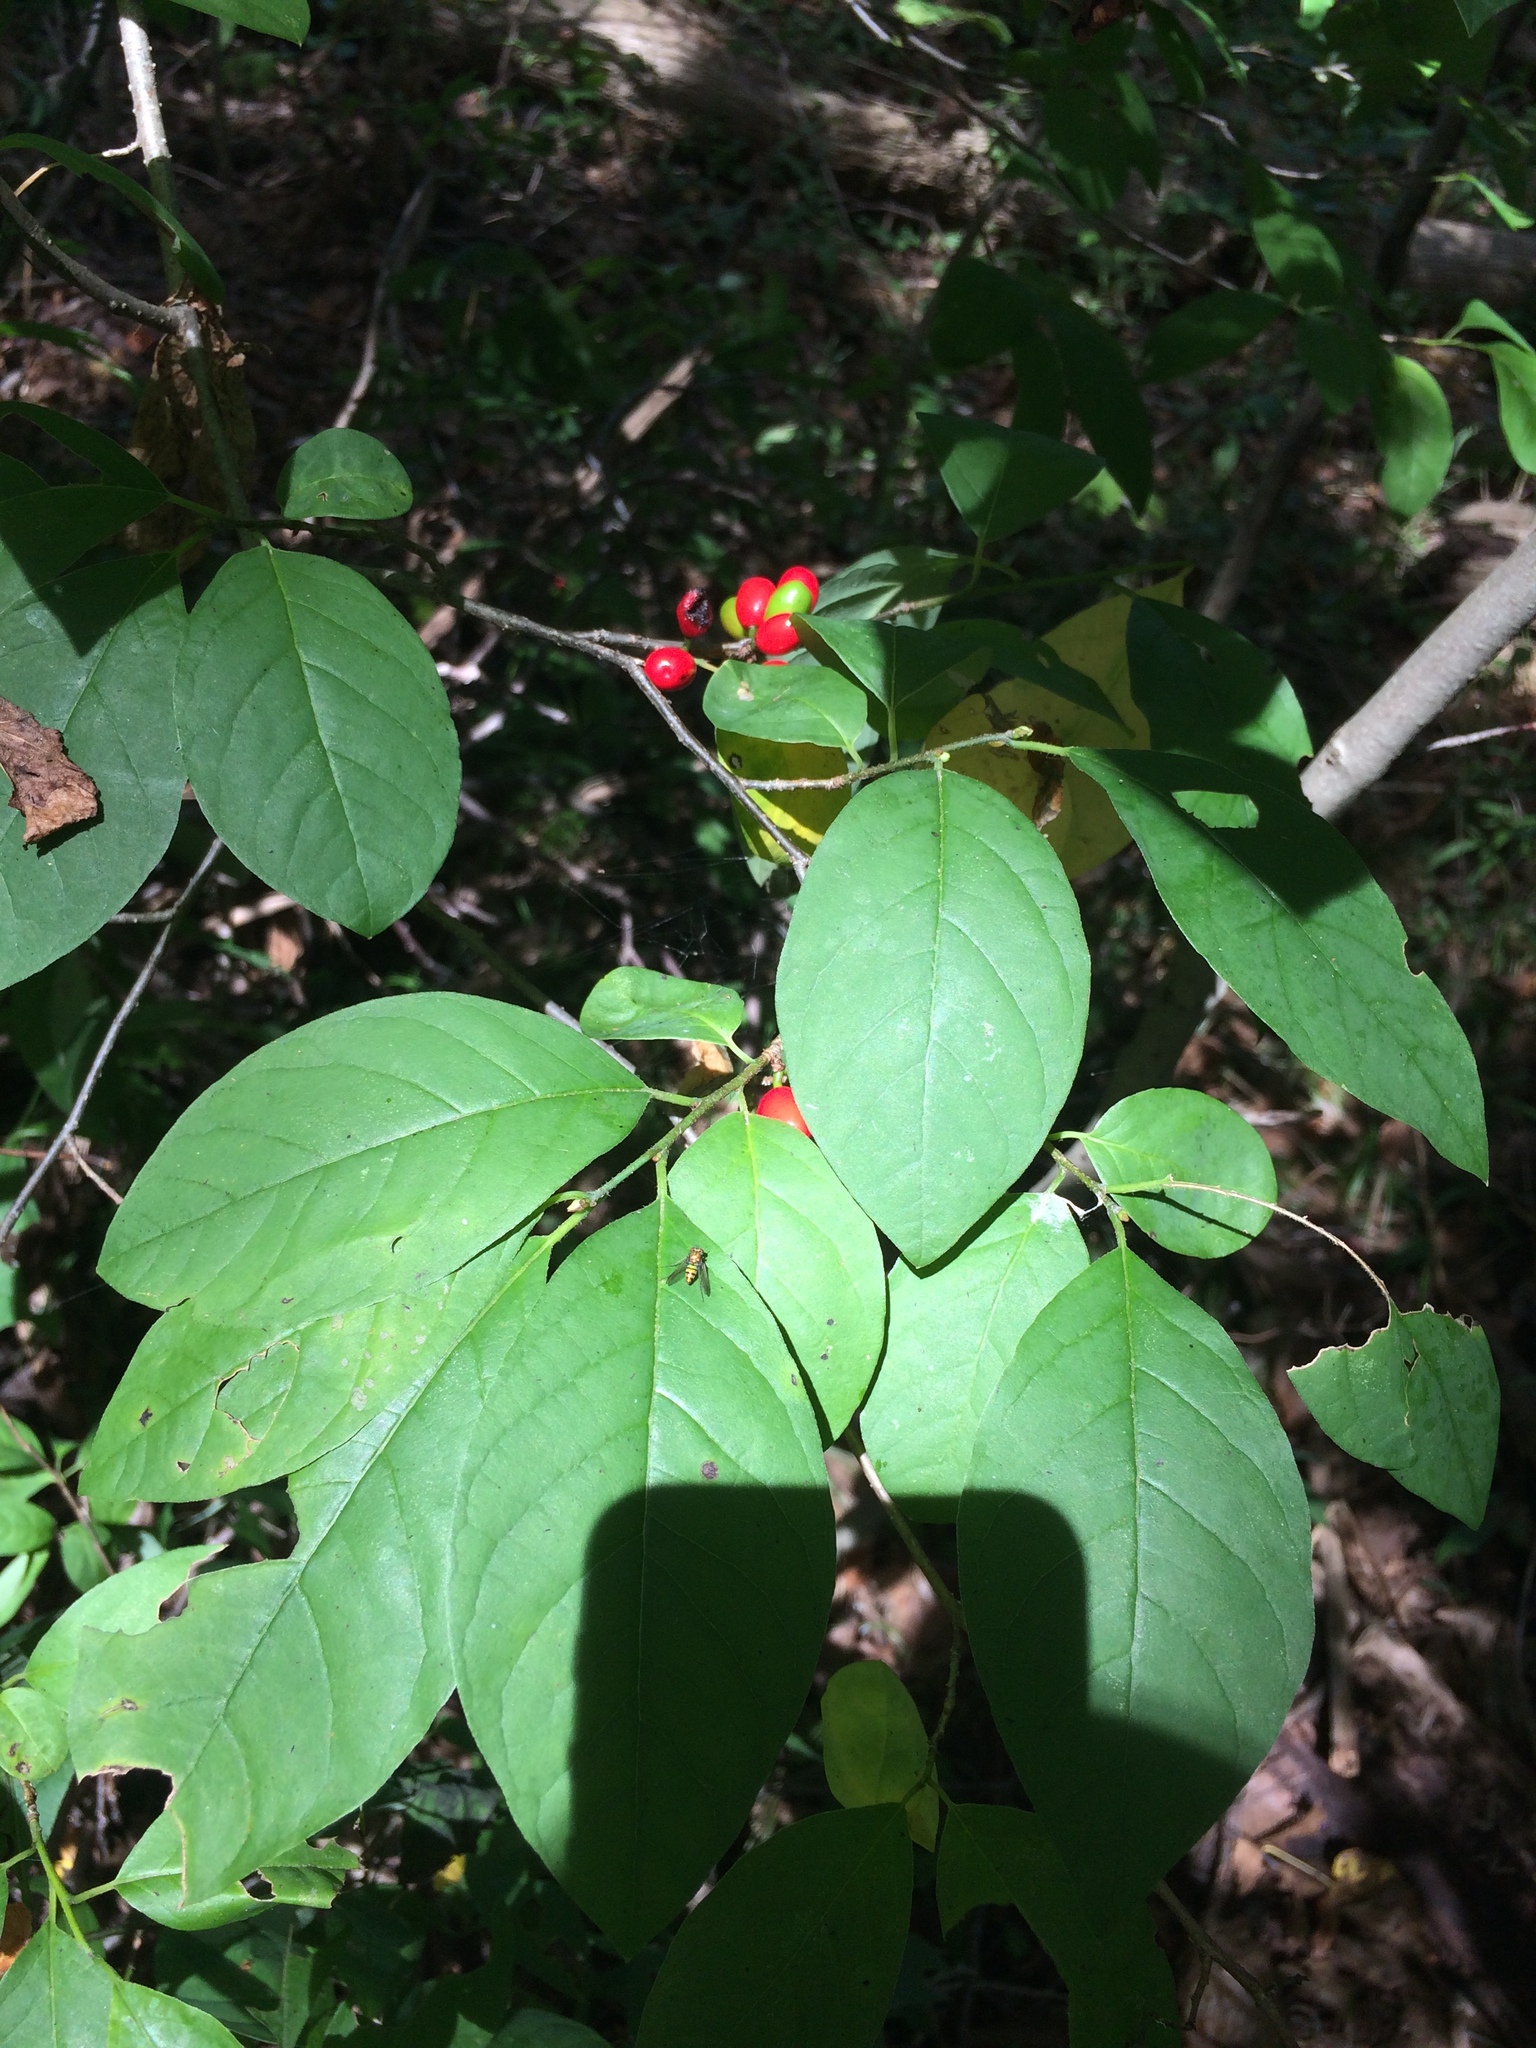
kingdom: Plantae
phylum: Tracheophyta
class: Magnoliopsida
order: Laurales
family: Lauraceae
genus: Lindera
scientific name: Lindera benzoin
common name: Spicebush
